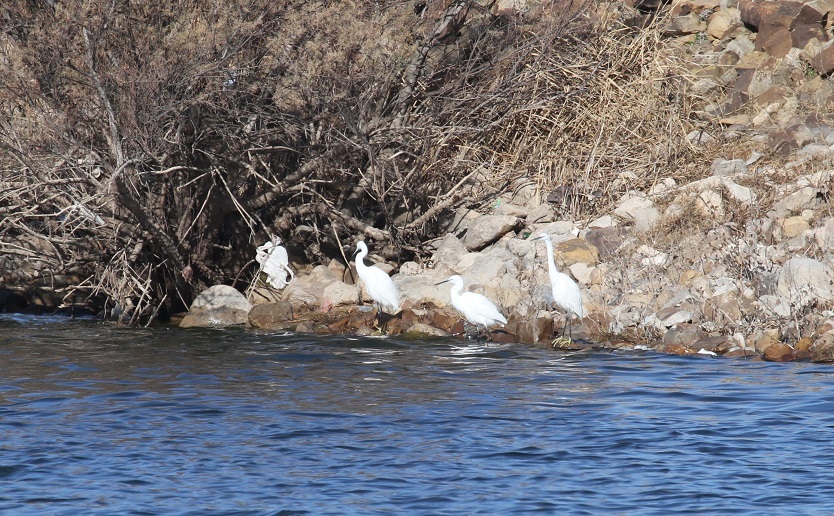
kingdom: Animalia
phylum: Chordata
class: Aves
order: Pelecaniformes
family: Ardeidae
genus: Egretta
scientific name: Egretta garzetta
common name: Little egret
